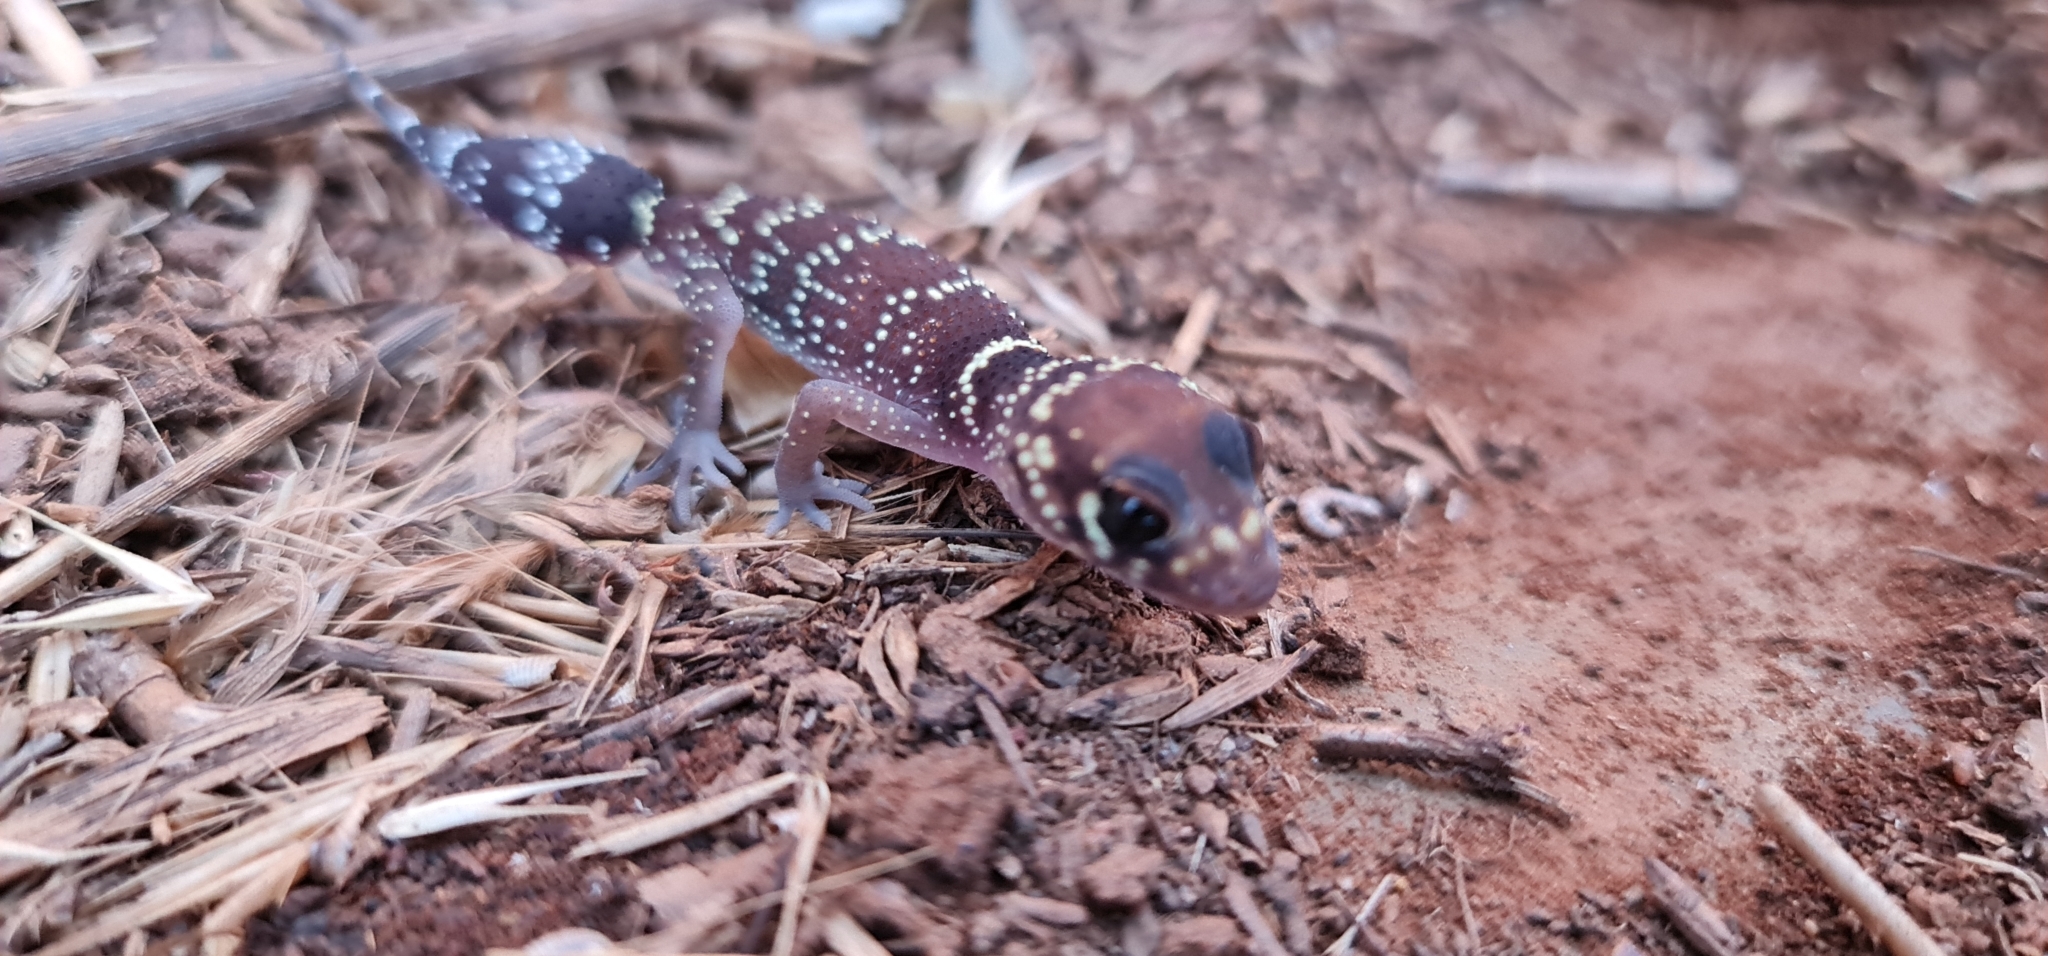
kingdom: Animalia
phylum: Chordata
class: Squamata
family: Carphodactylidae
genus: Underwoodisaurus
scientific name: Underwoodisaurus milii
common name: Barking gecko
